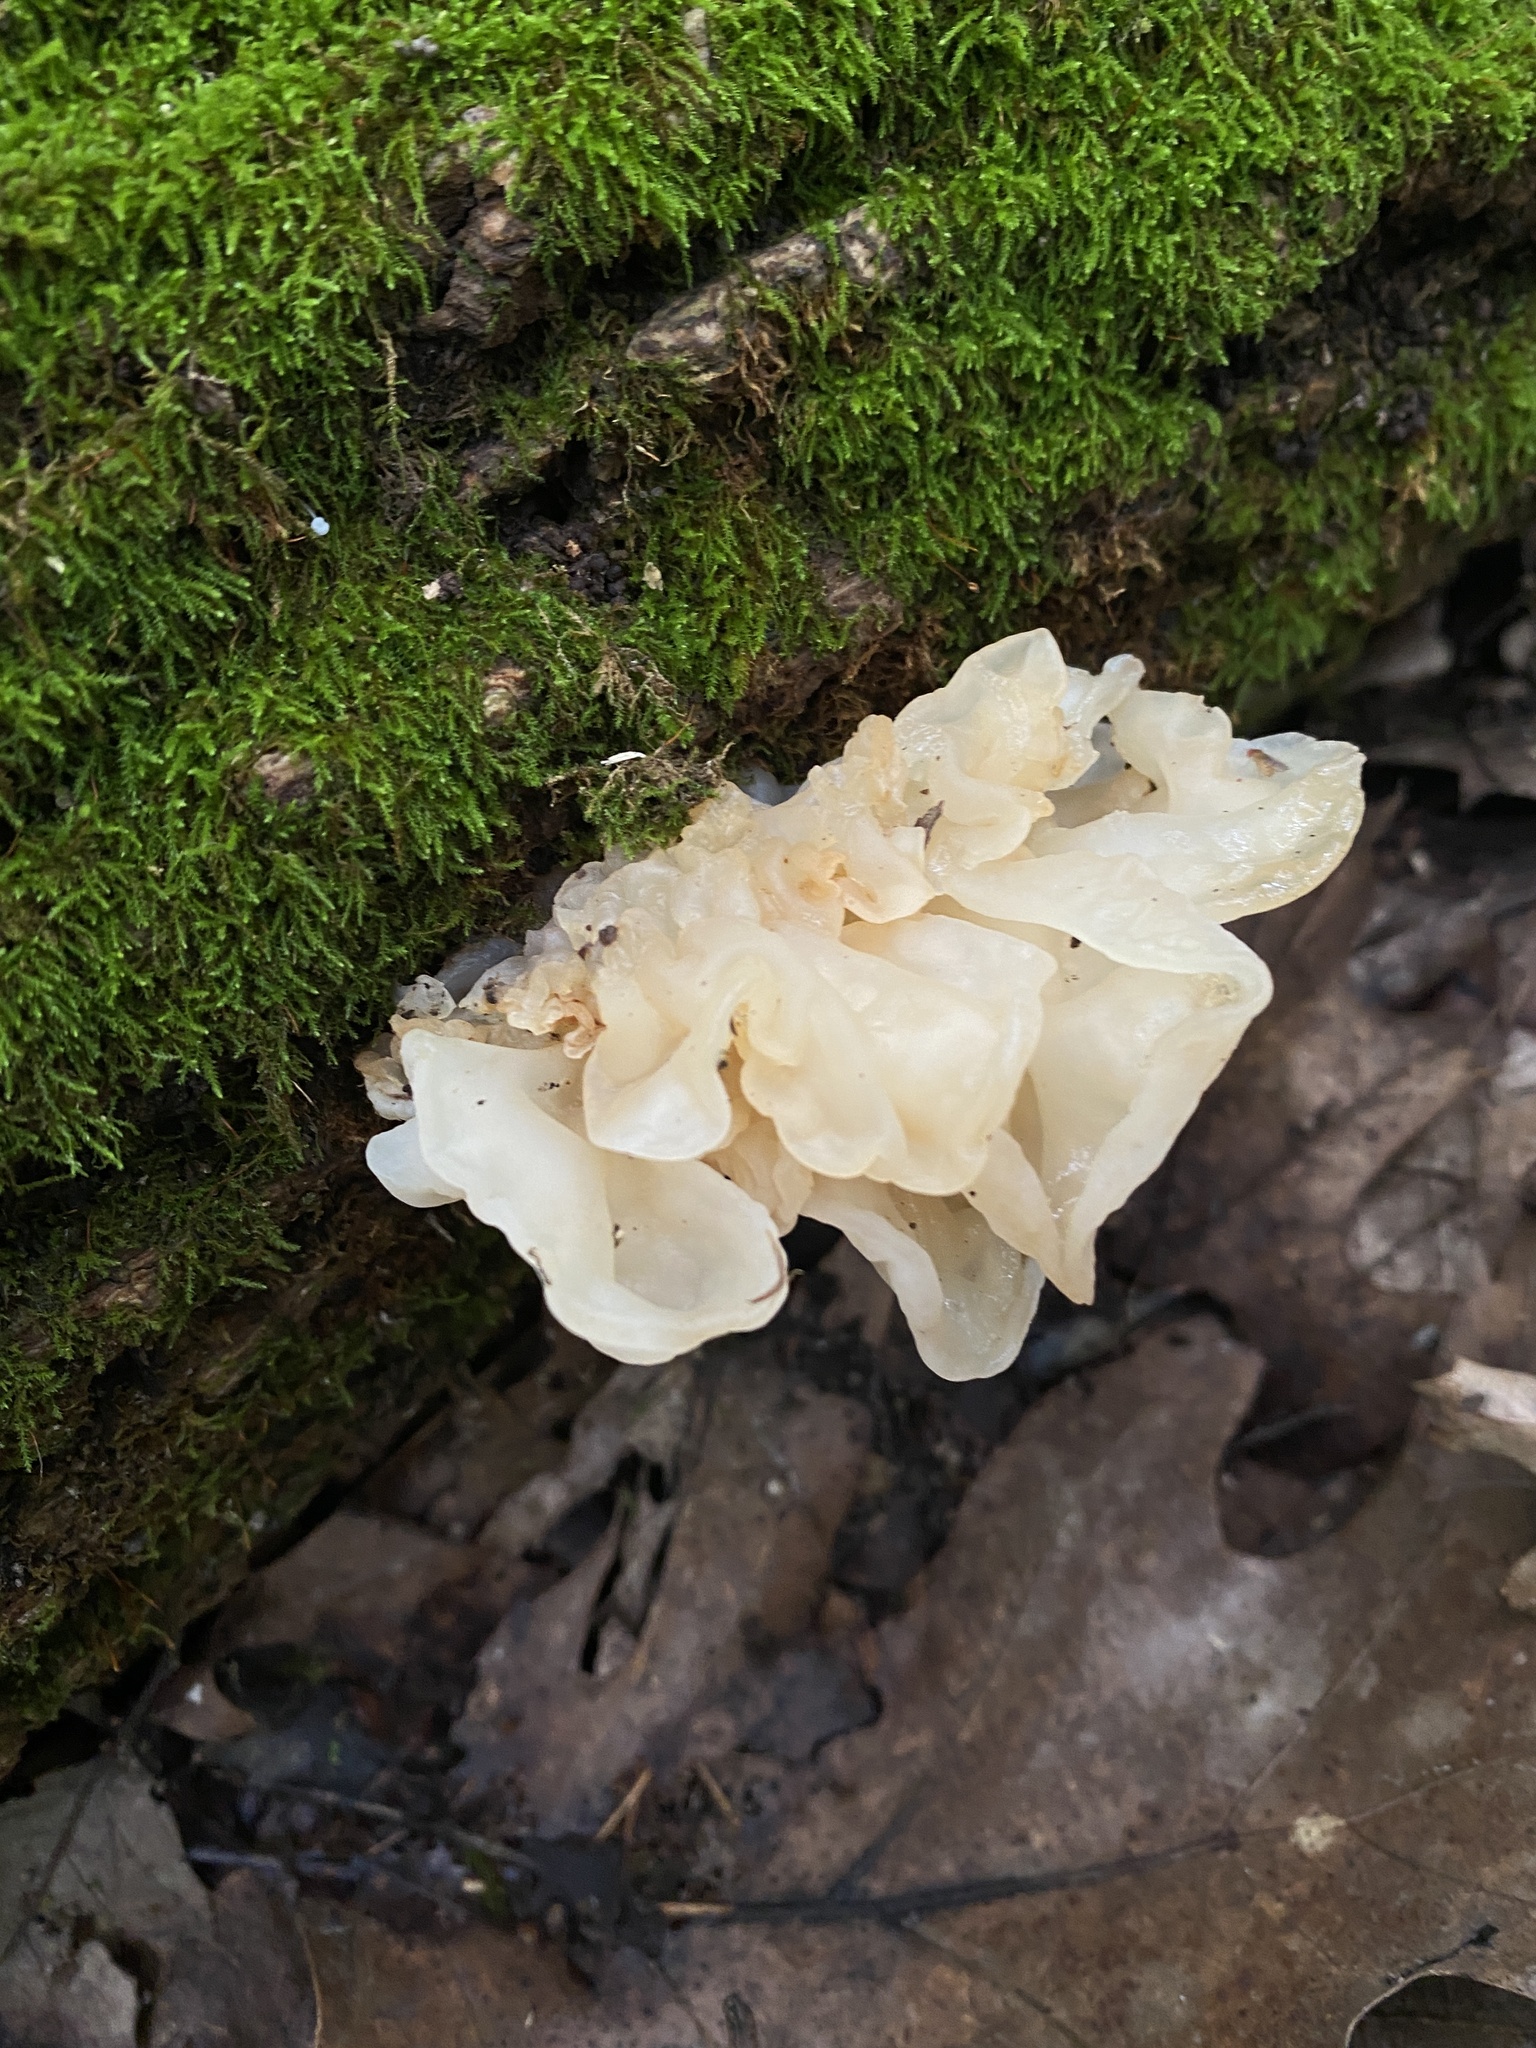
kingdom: Fungi
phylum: Basidiomycota
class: Agaricomycetes
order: Auriculariales
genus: Ductifera
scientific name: Ductifera pululahuana
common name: White jelly fungus
